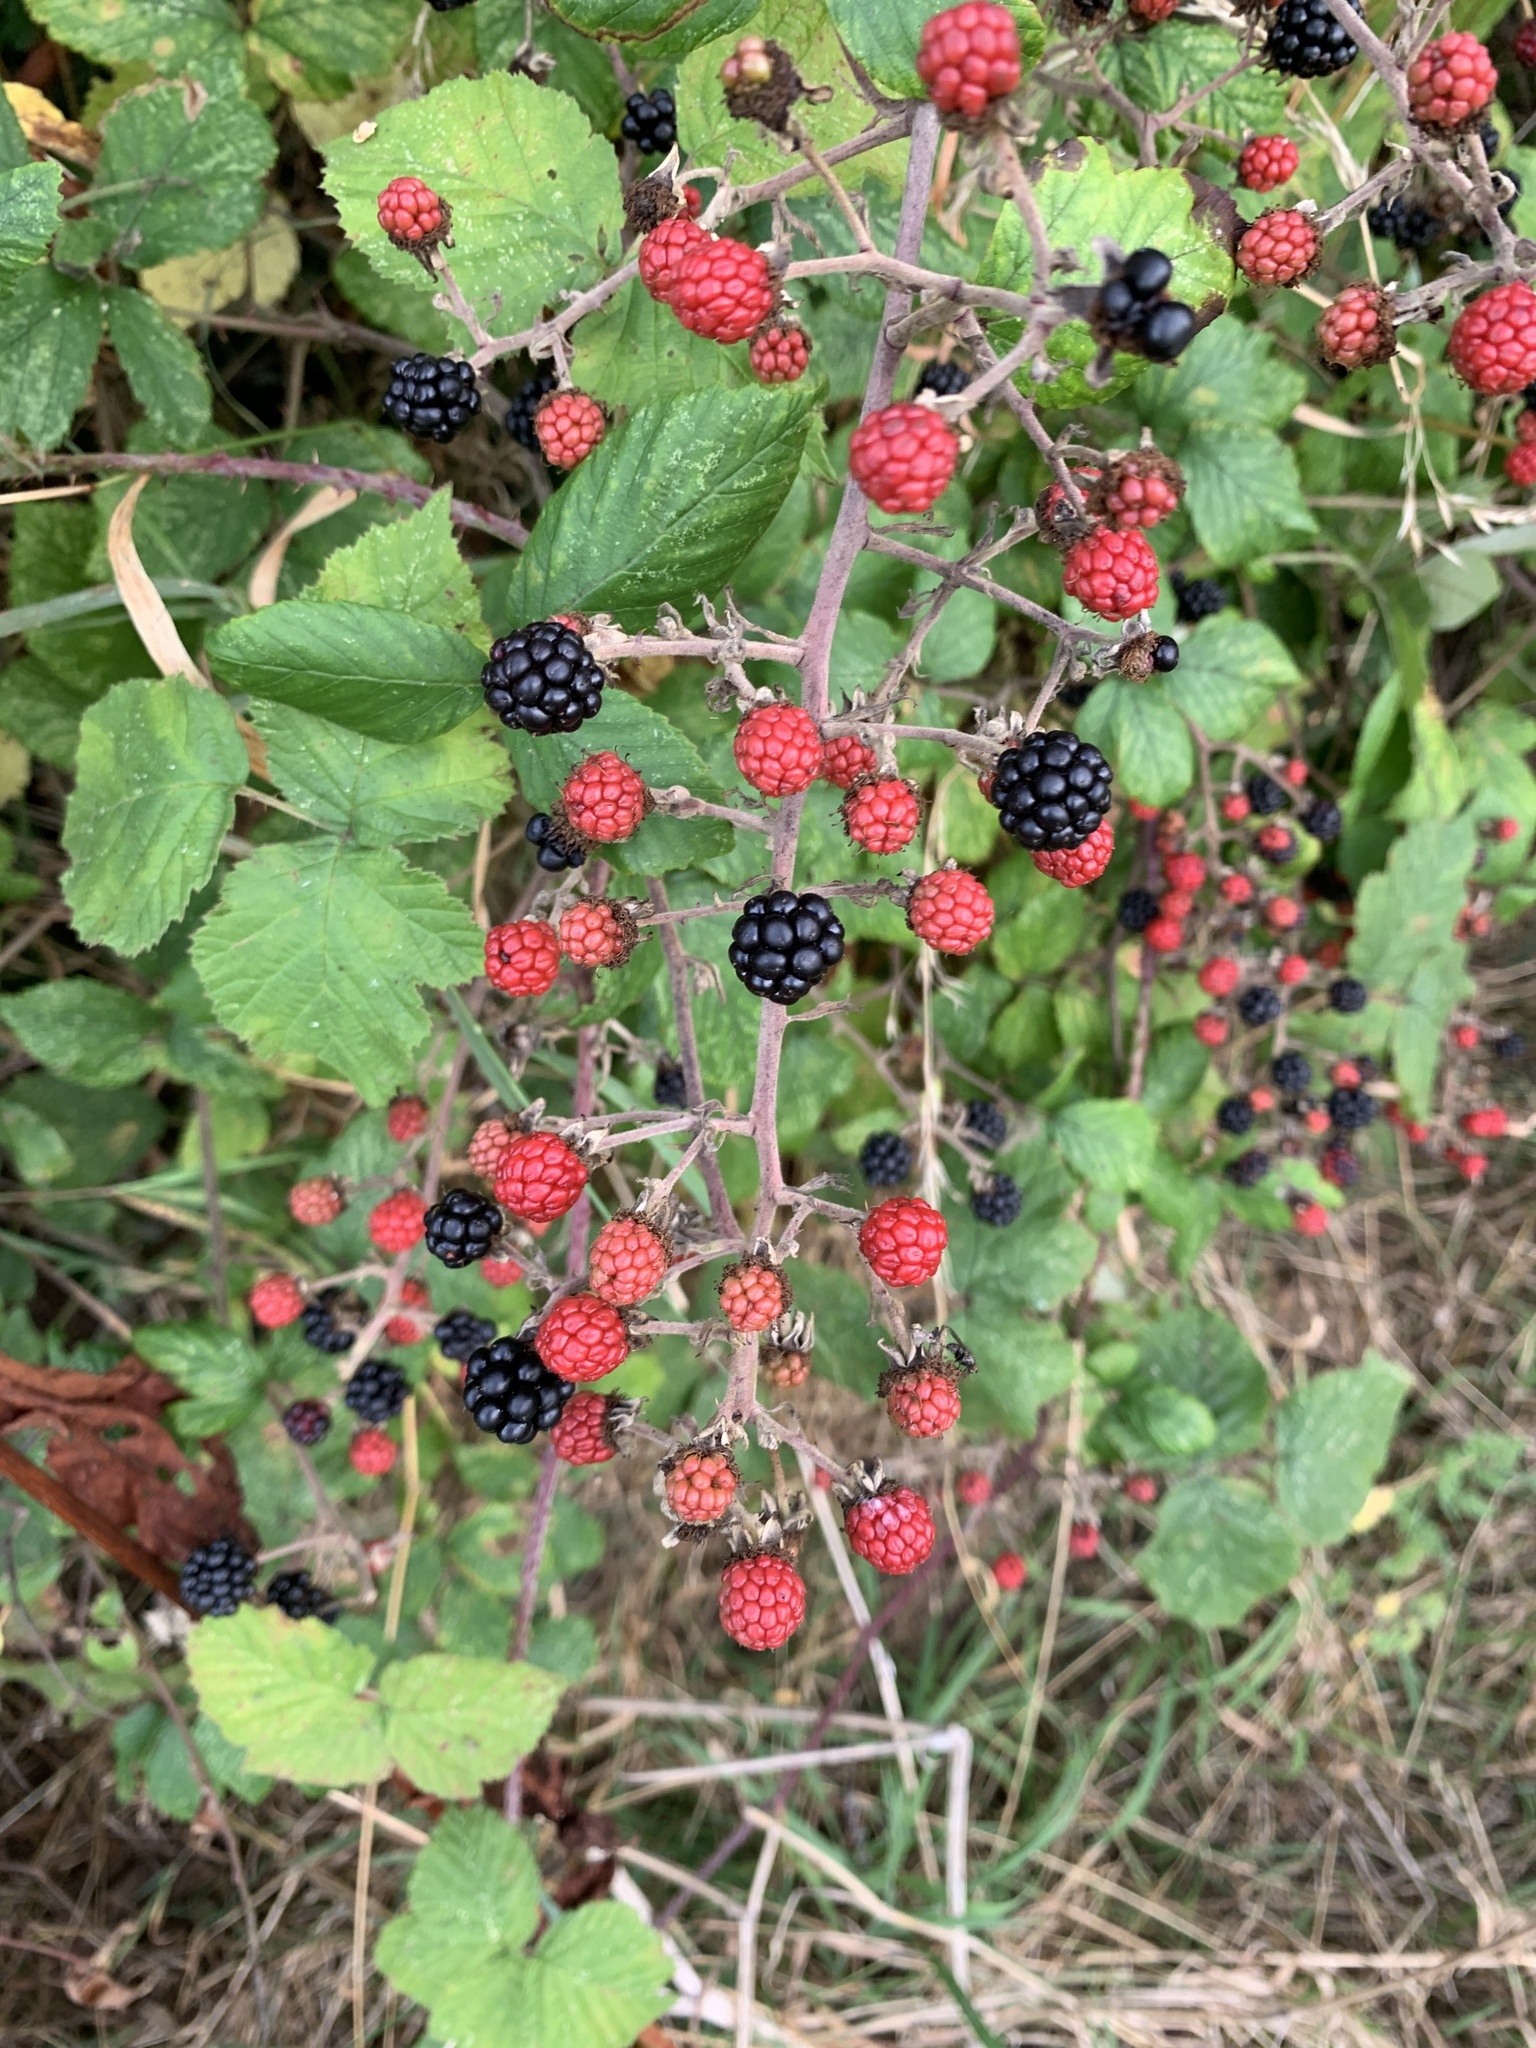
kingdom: Plantae
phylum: Tracheophyta
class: Magnoliopsida
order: Rosales
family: Rosaceae
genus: Rubus
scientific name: Rubus fruticosus
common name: Blackberry, bramble
